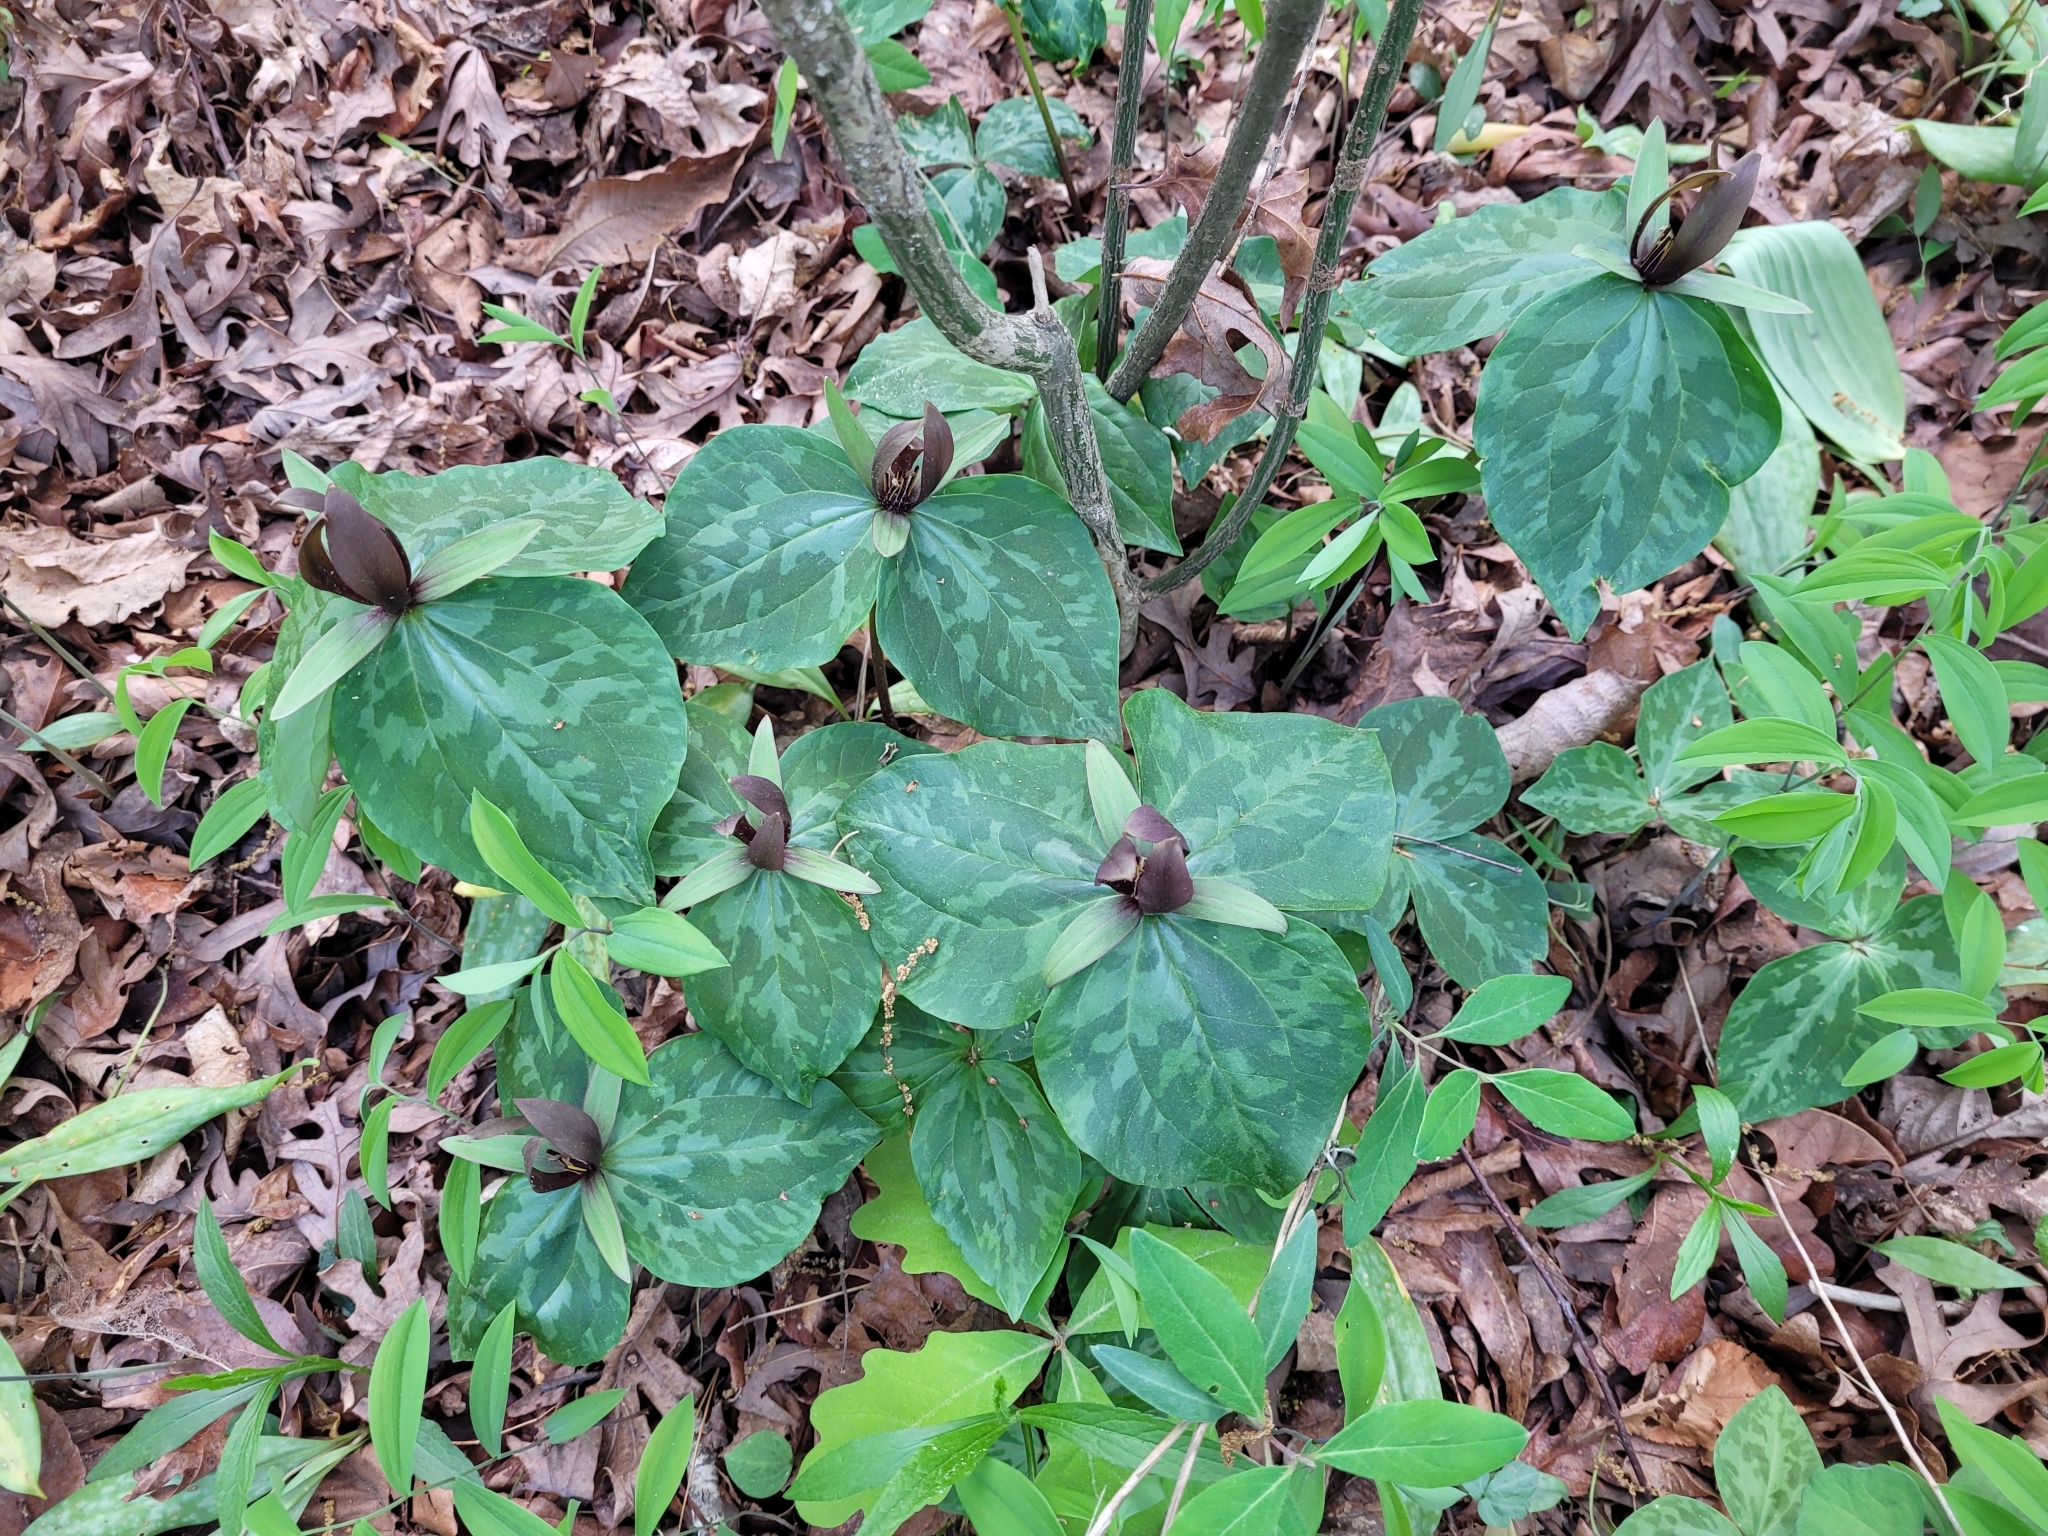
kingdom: Plantae
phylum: Tracheophyta
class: Liliopsida
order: Liliales
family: Melanthiaceae
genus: Trillium
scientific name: Trillium cuneatum
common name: Cuneate trillium
